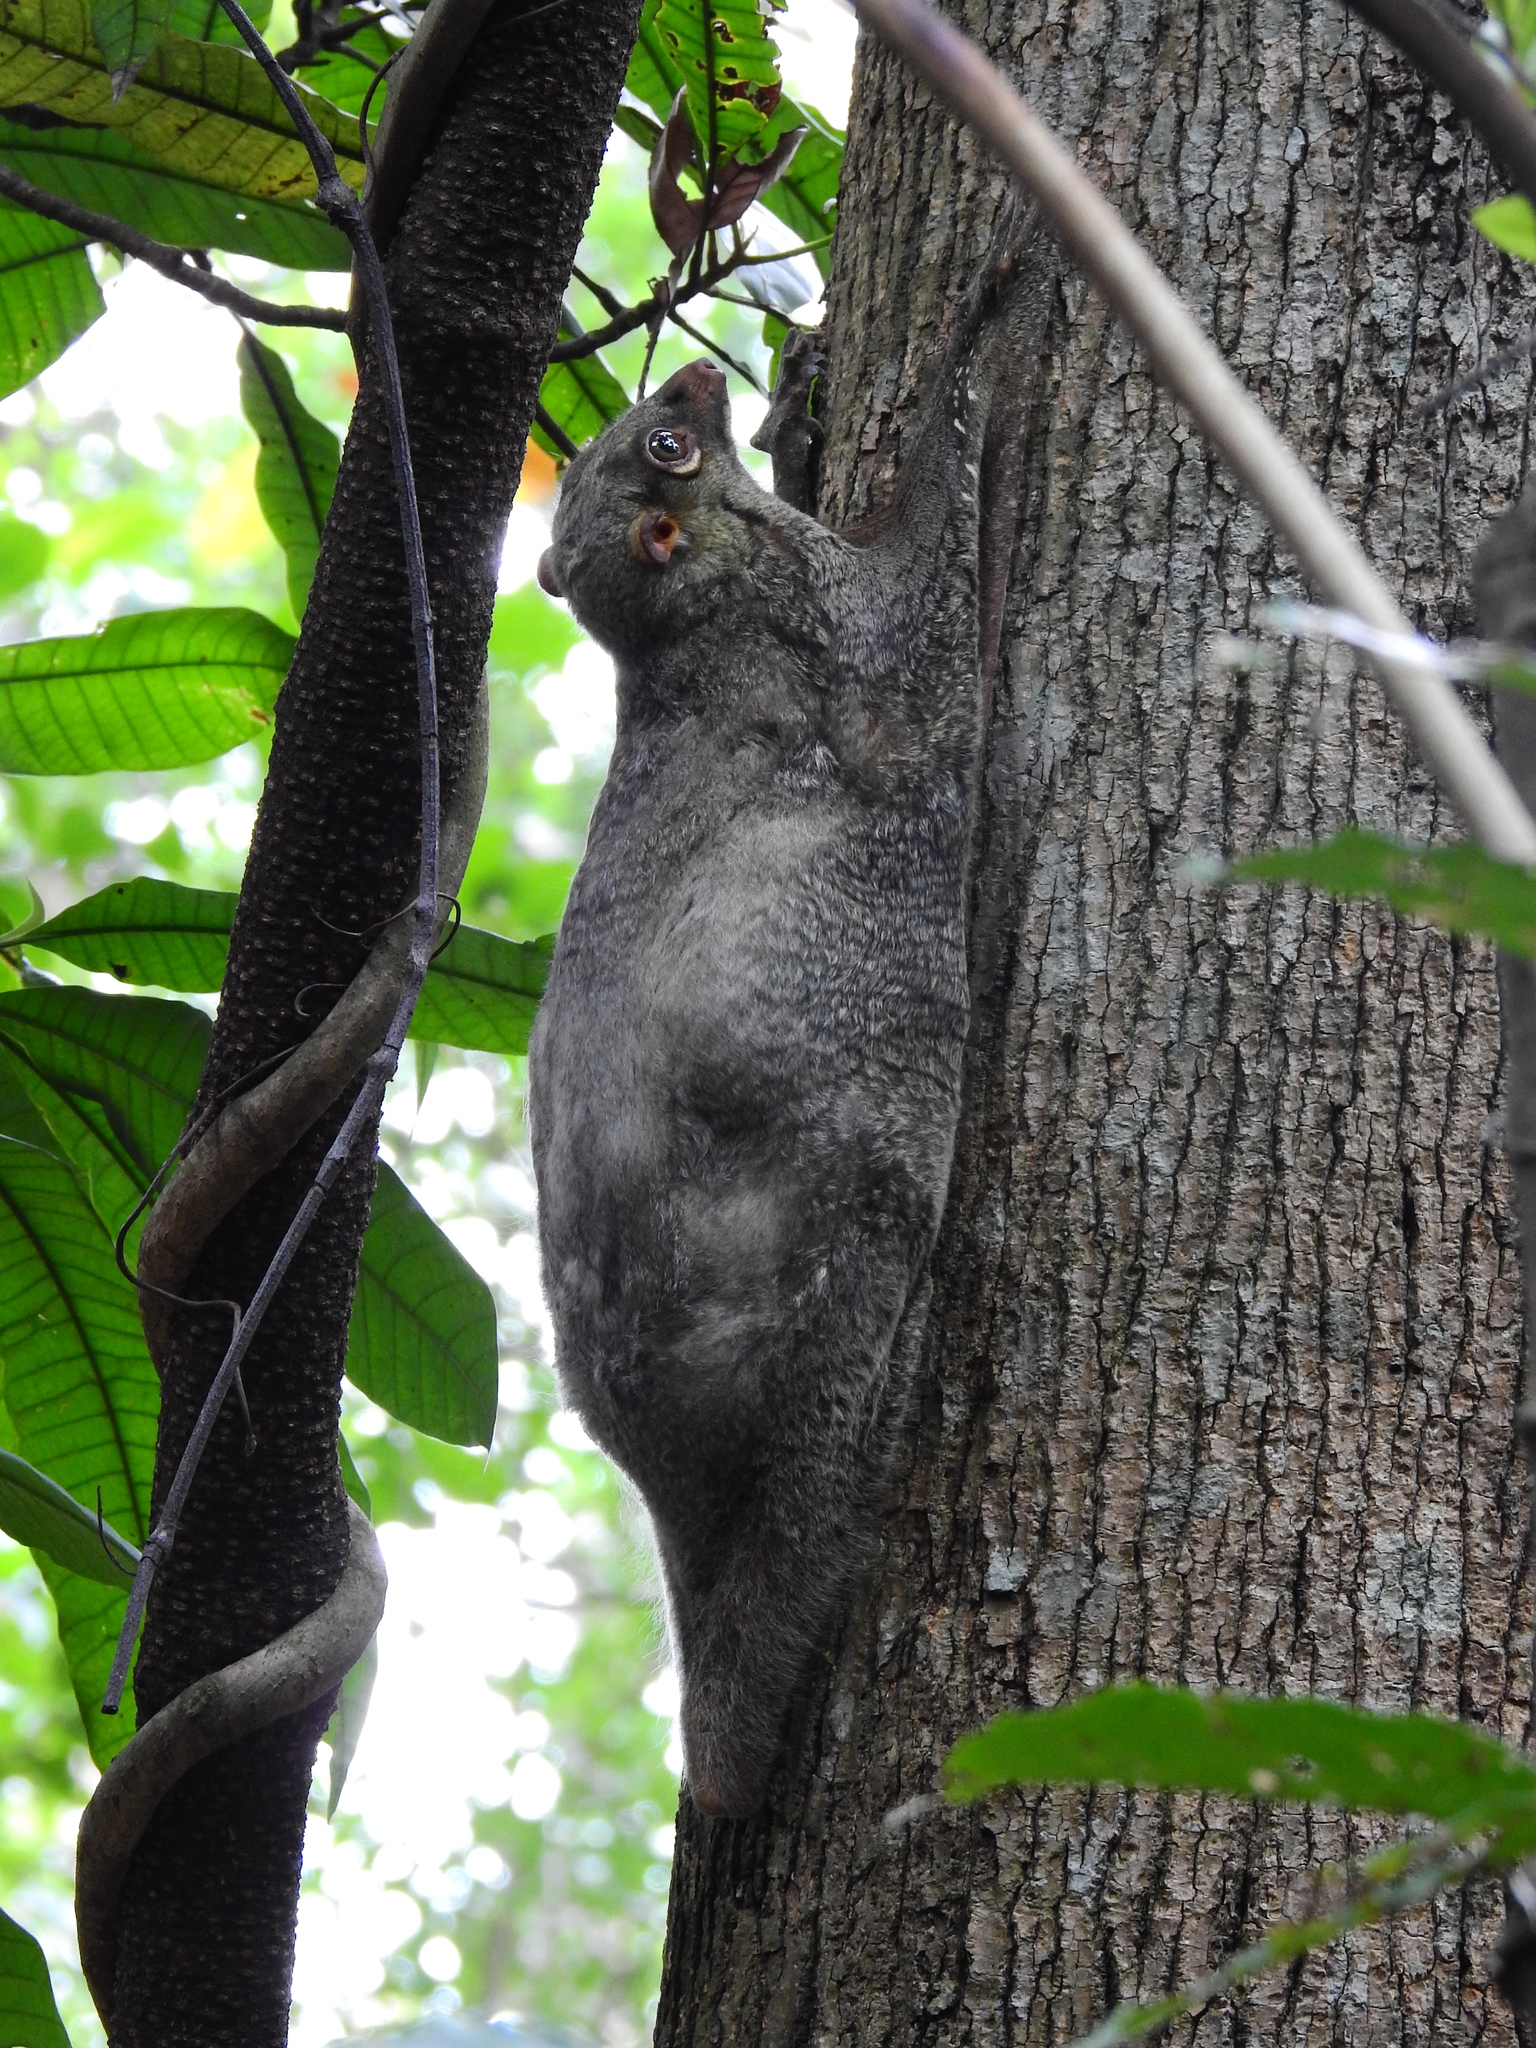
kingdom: Animalia
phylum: Chordata
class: Mammalia
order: Dermoptera
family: Cynocephalidae
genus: Galeopterus
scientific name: Galeopterus variegatus
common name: Sunda flying lemur
